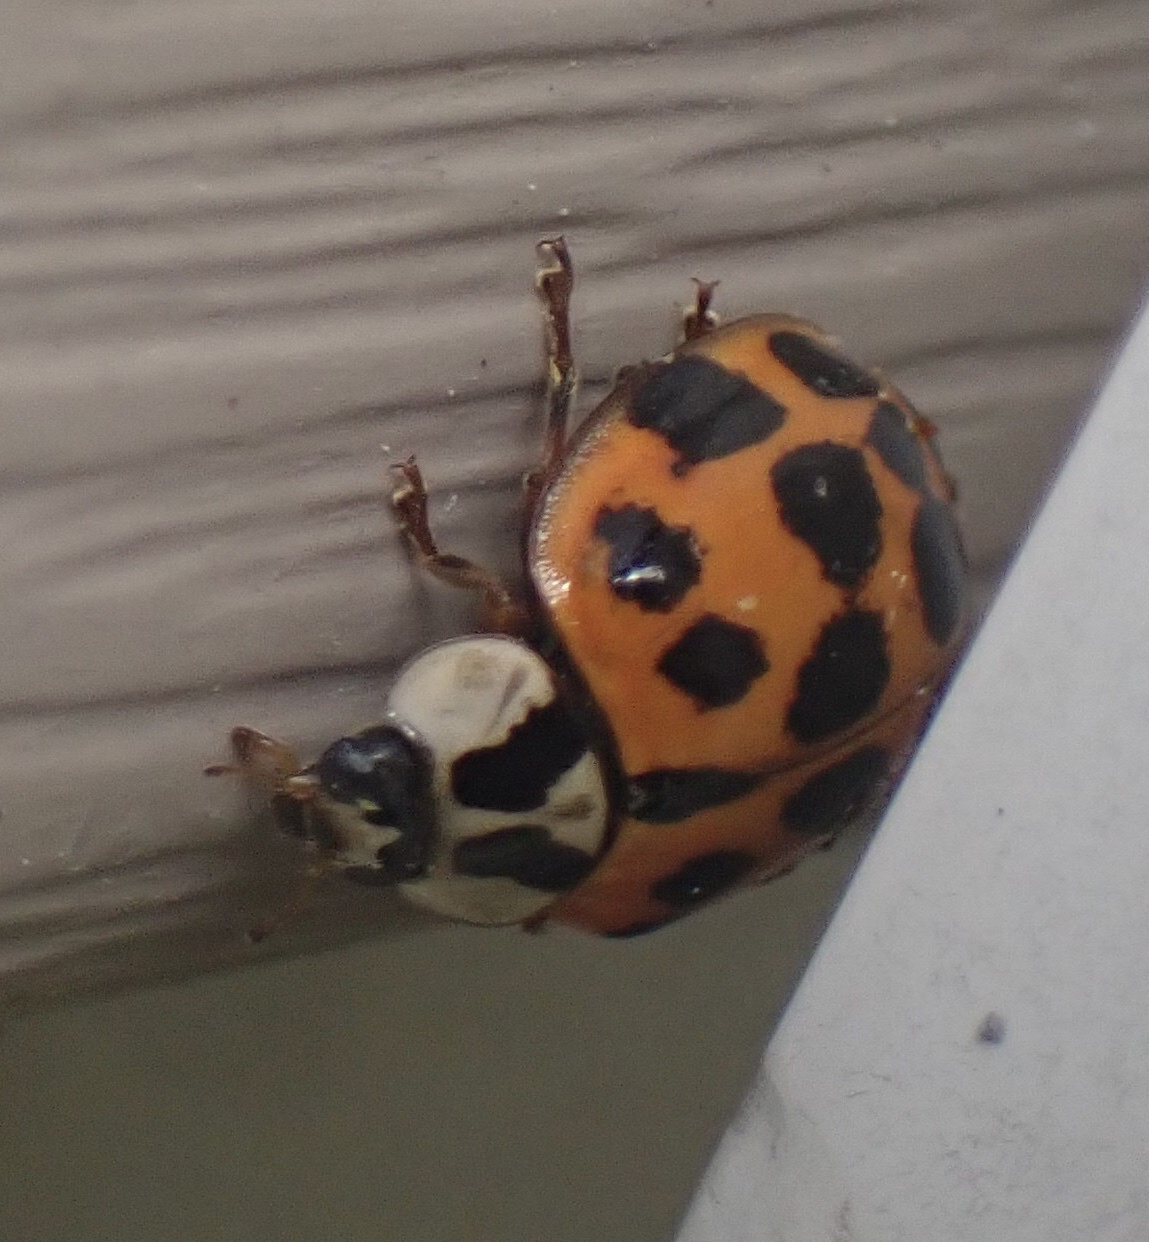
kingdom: Animalia
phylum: Arthropoda
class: Insecta
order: Coleoptera
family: Coccinellidae
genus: Harmonia
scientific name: Harmonia axyridis
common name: Harlequin ladybird
